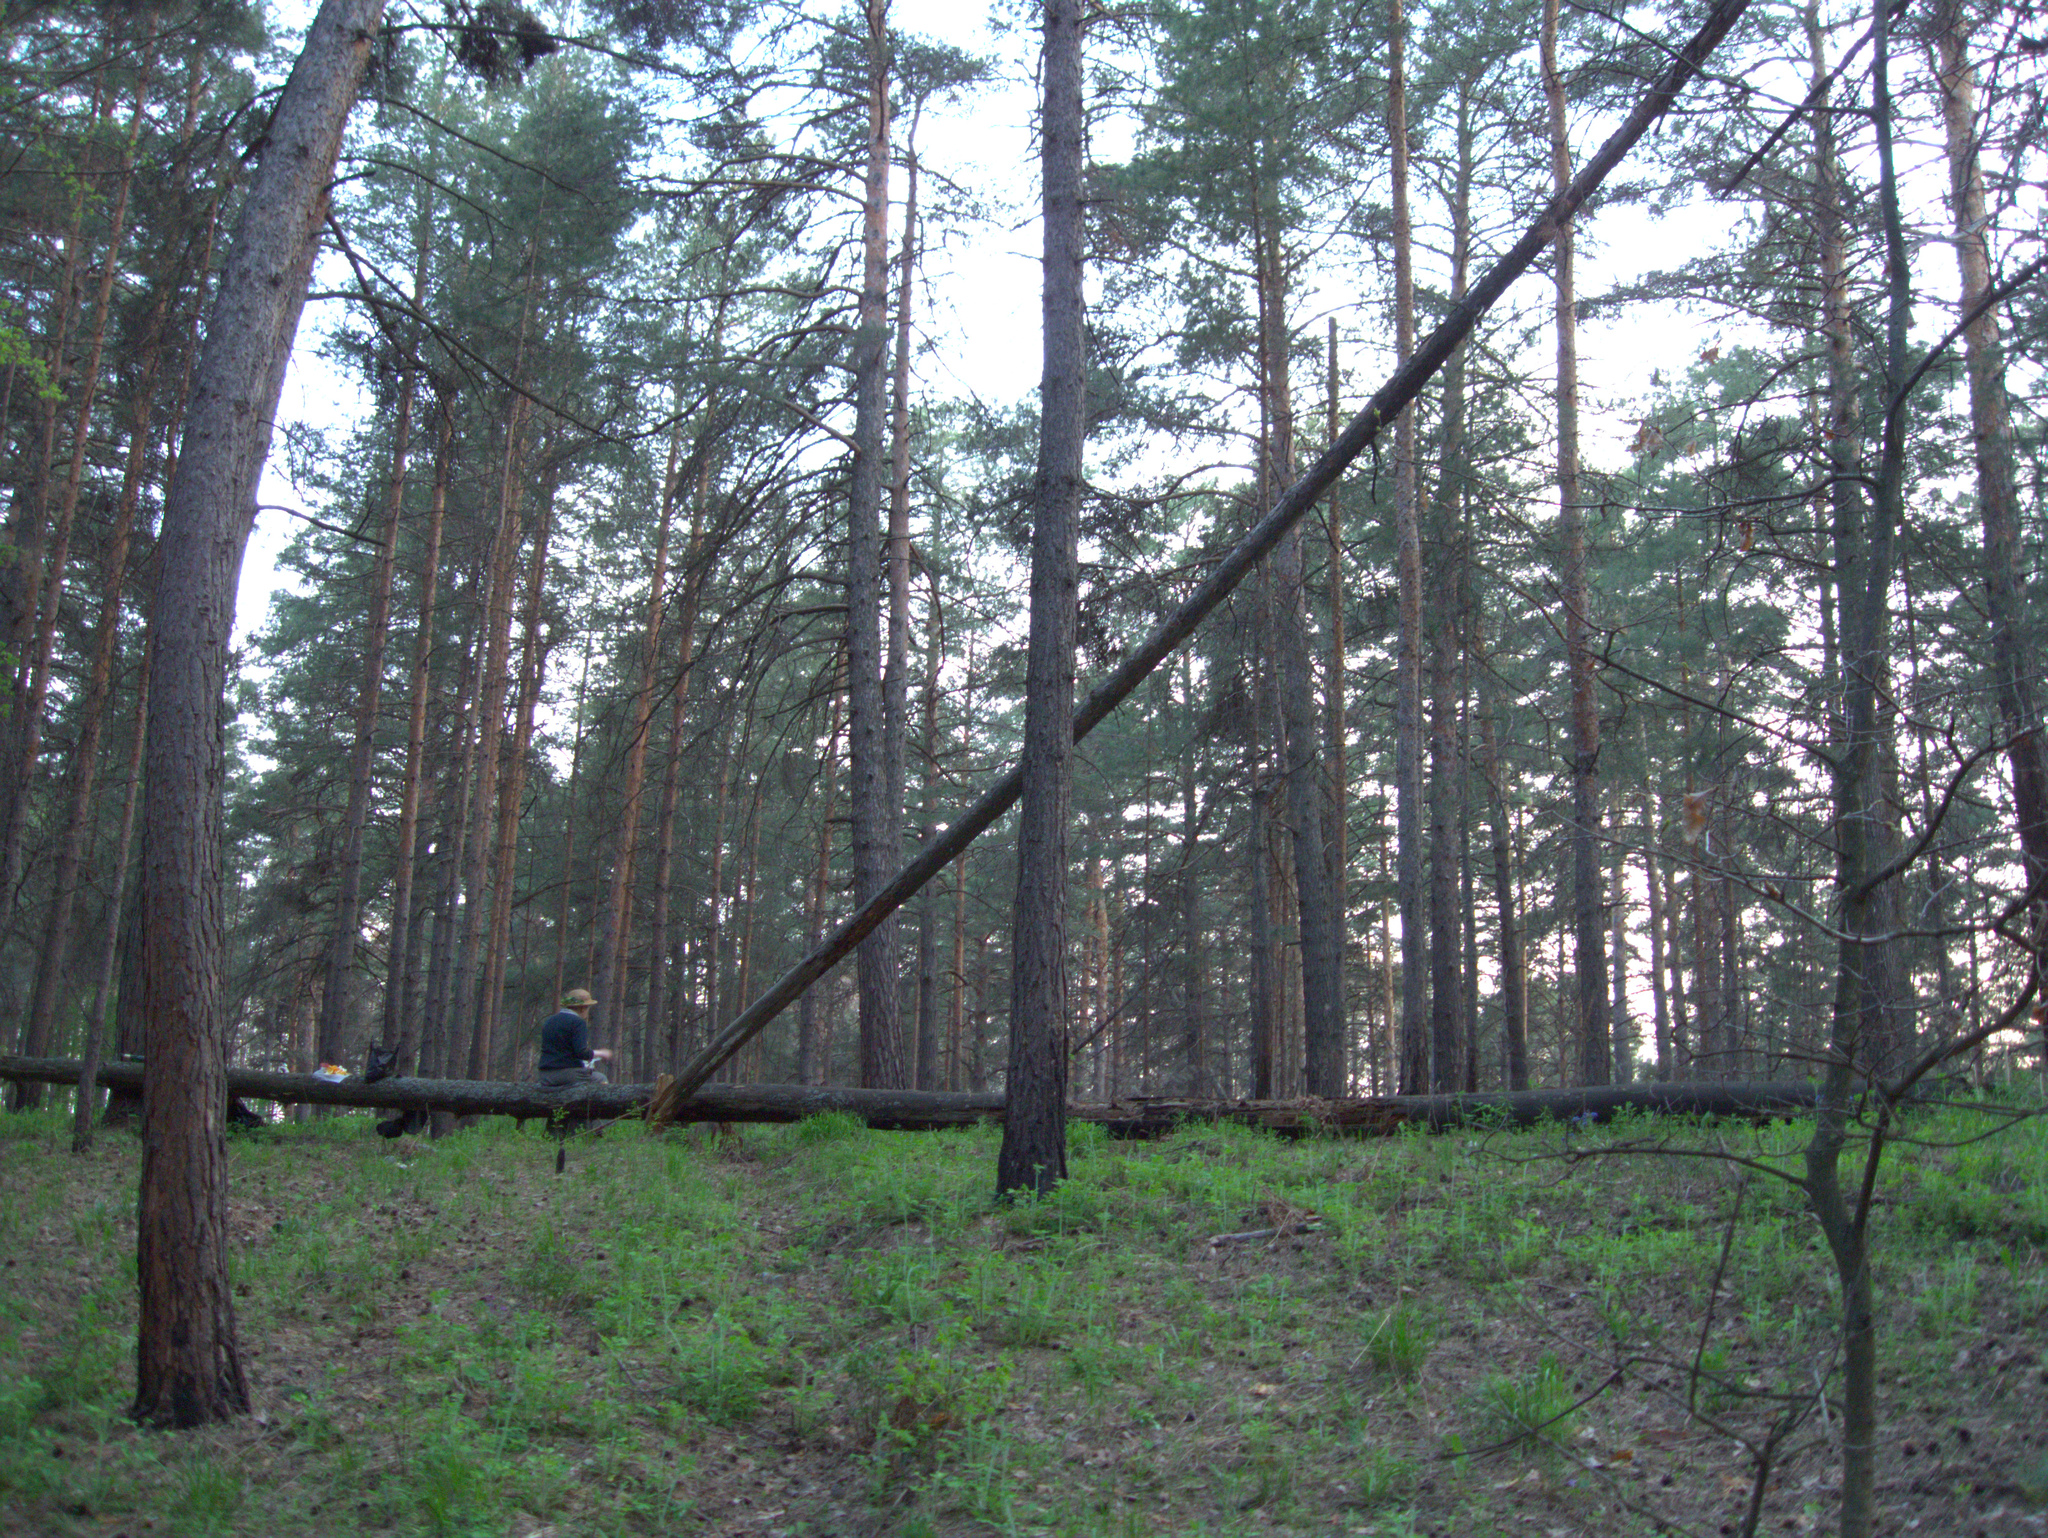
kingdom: Plantae
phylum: Tracheophyta
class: Pinopsida
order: Pinales
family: Pinaceae
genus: Pinus
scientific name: Pinus sylvestris
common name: Scots pine
